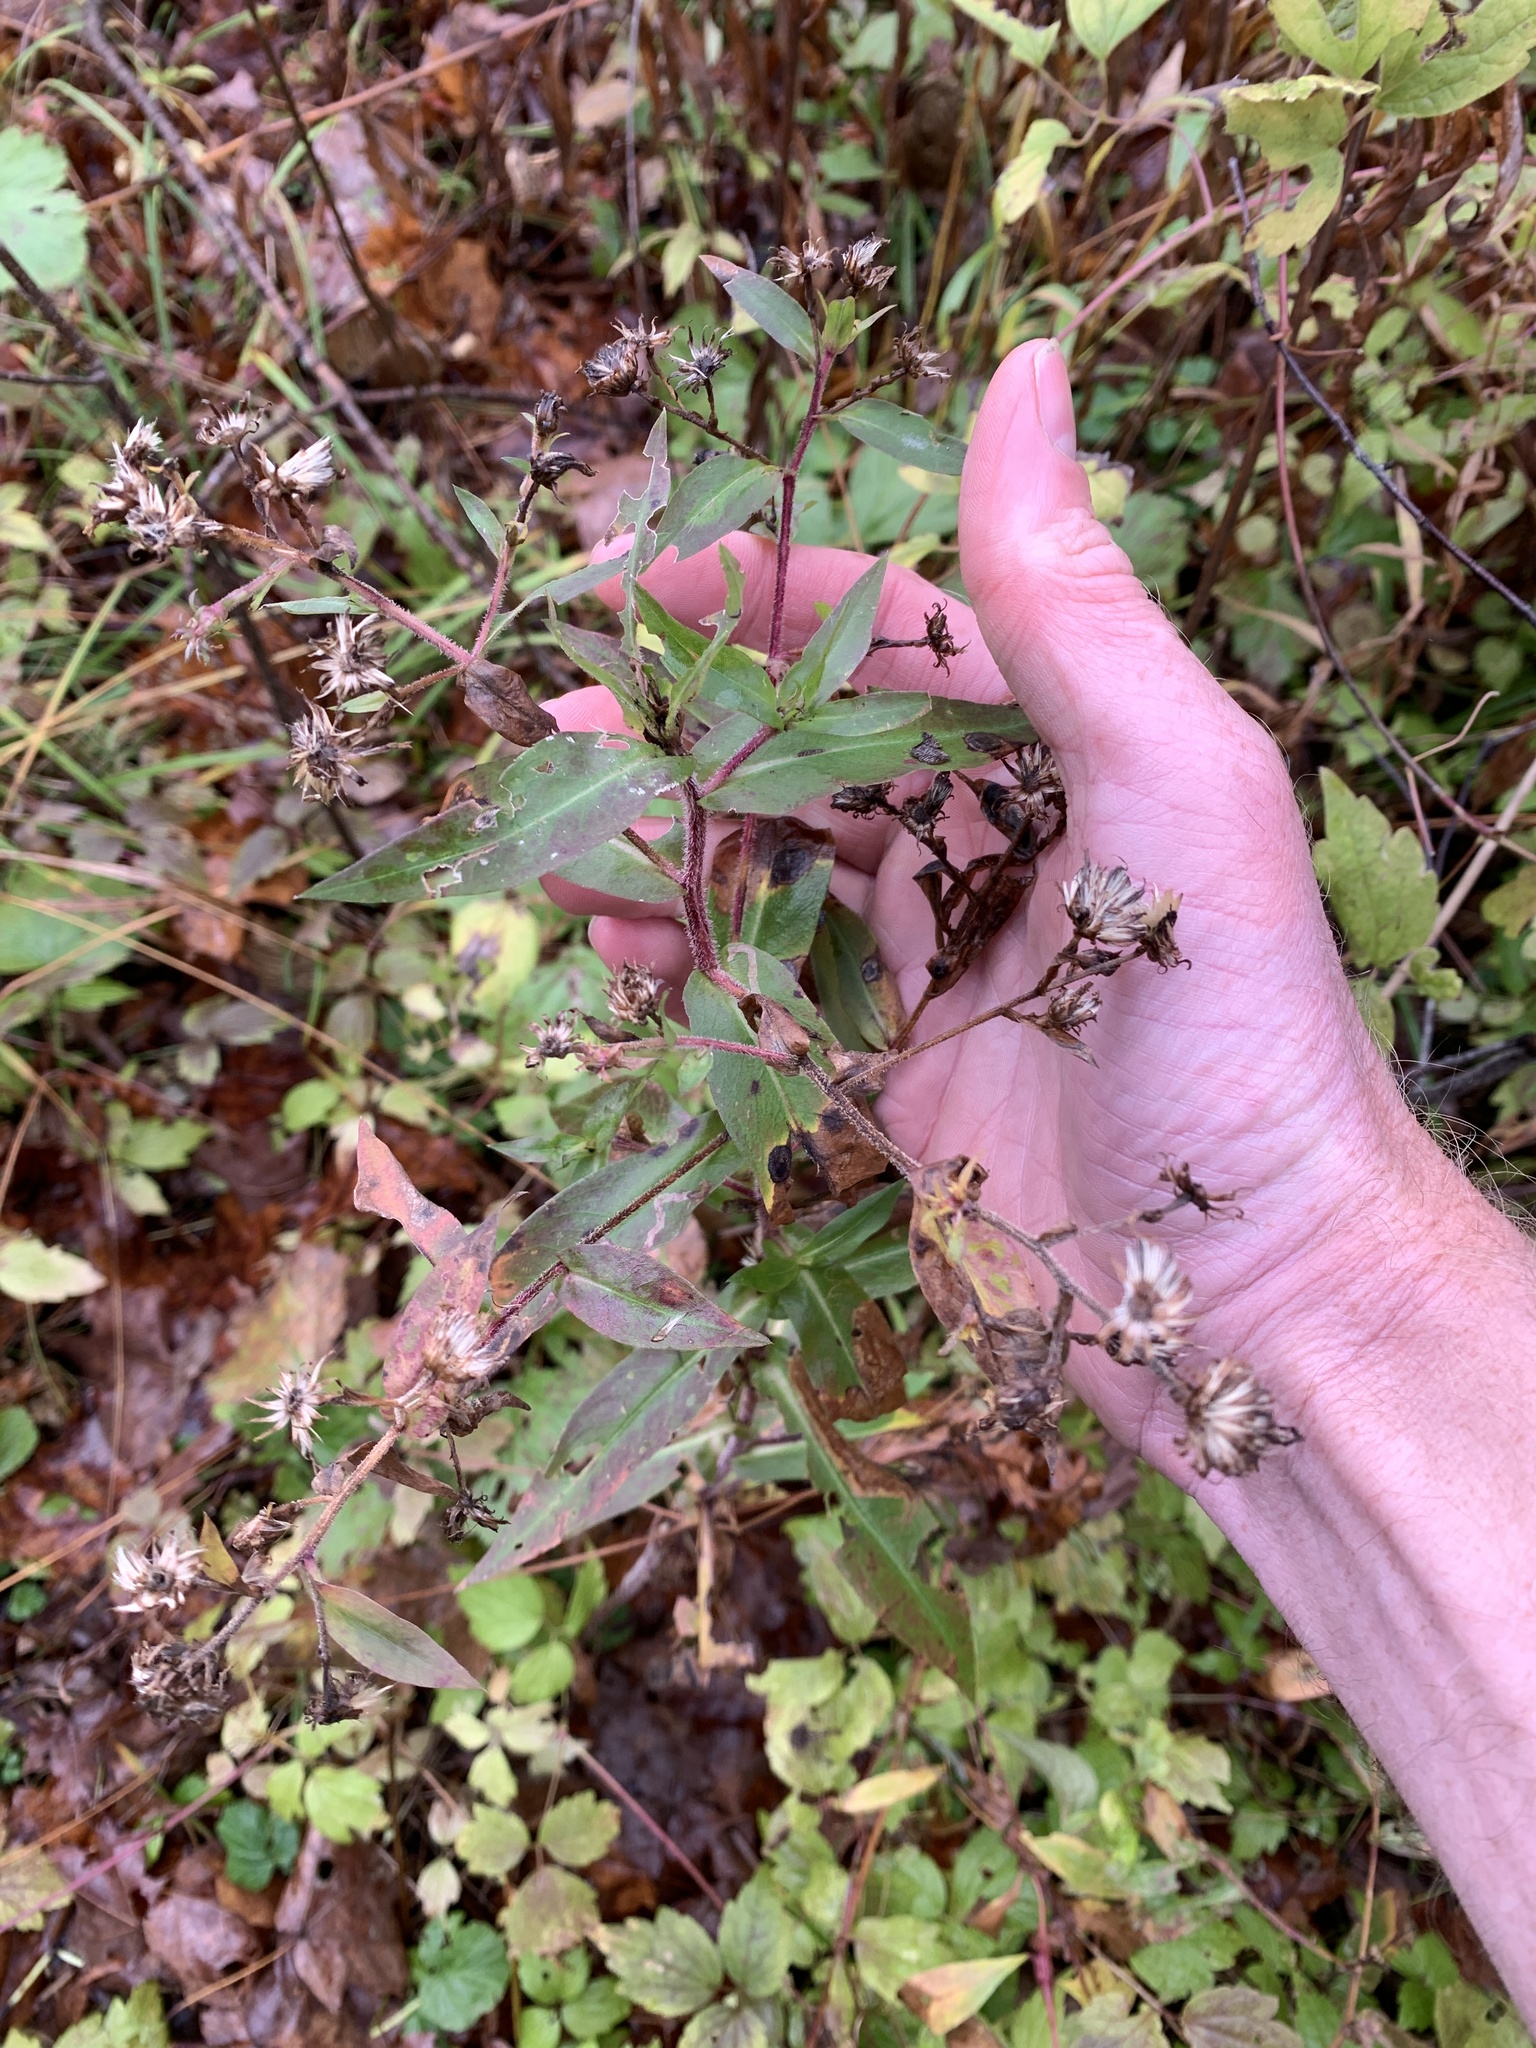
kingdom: Plantae
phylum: Tracheophyta
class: Magnoliopsida
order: Asterales
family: Asteraceae
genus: Symphyotrichum
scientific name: Symphyotrichum puniceum
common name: Bog aster
